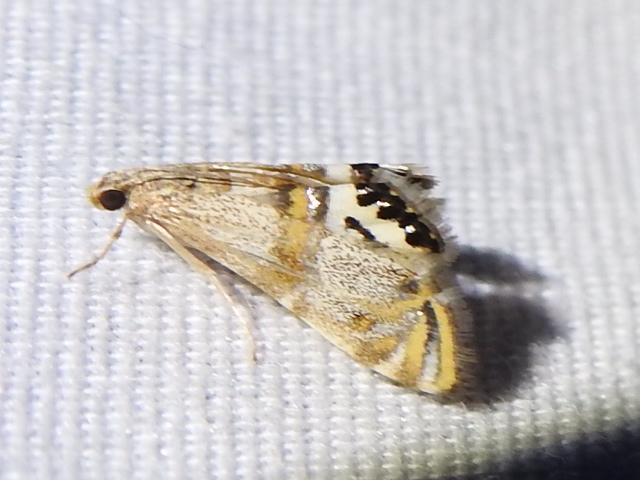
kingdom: Animalia
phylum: Arthropoda
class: Insecta
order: Lepidoptera
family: Crambidae
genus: Petrophila
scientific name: Petrophila bifascialis
